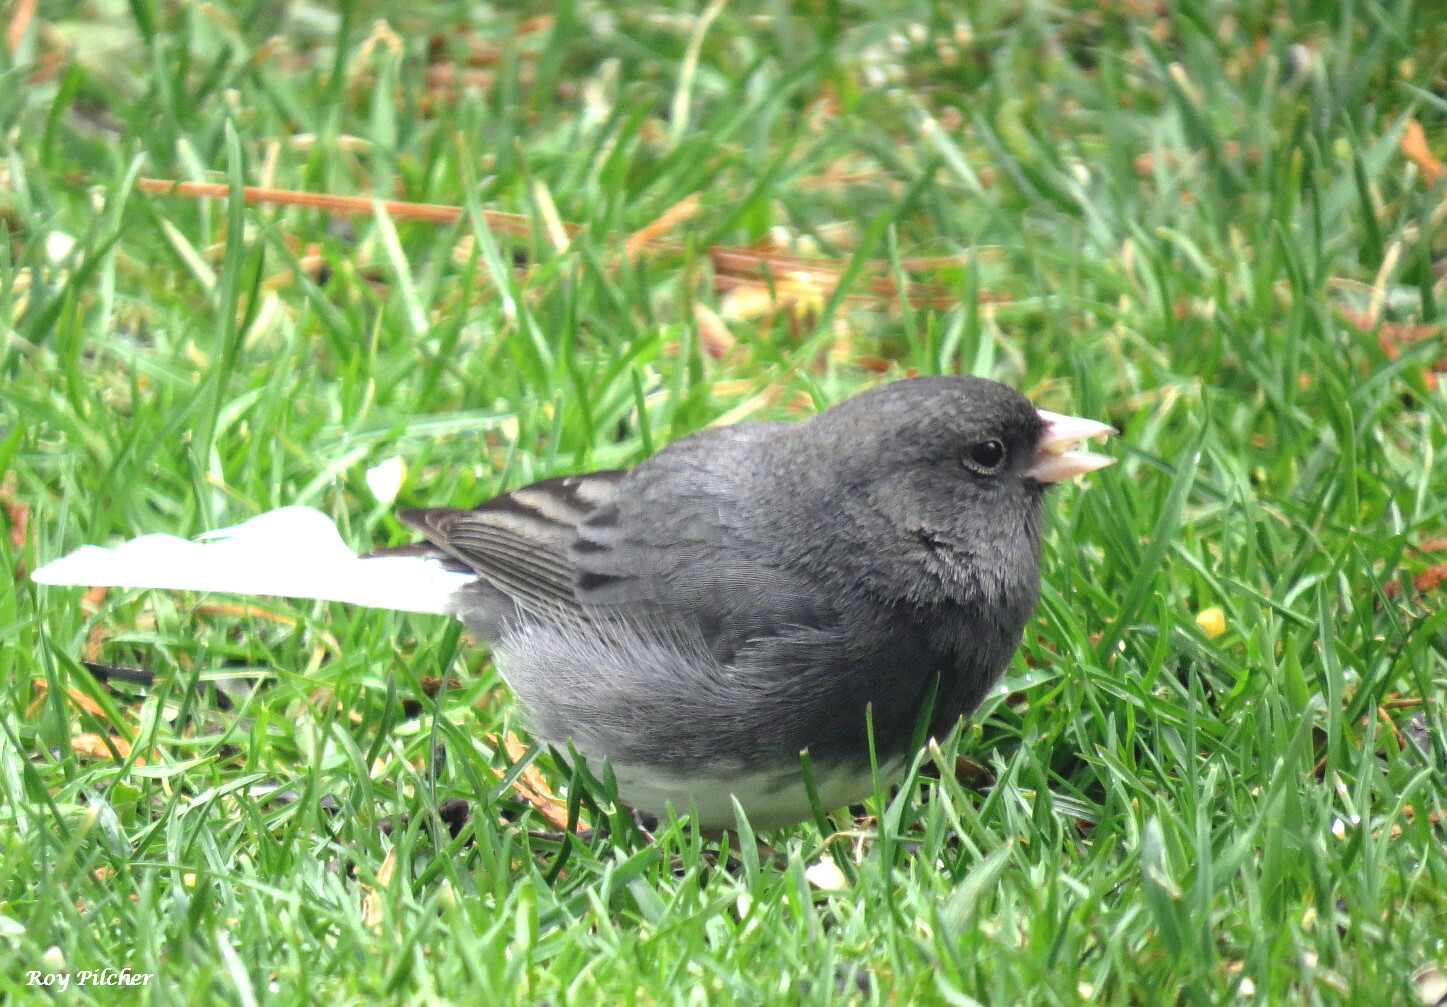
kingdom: Animalia
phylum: Chordata
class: Aves
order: Passeriformes
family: Passerellidae
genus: Junco
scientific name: Junco hyemalis
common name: Dark-eyed junco
